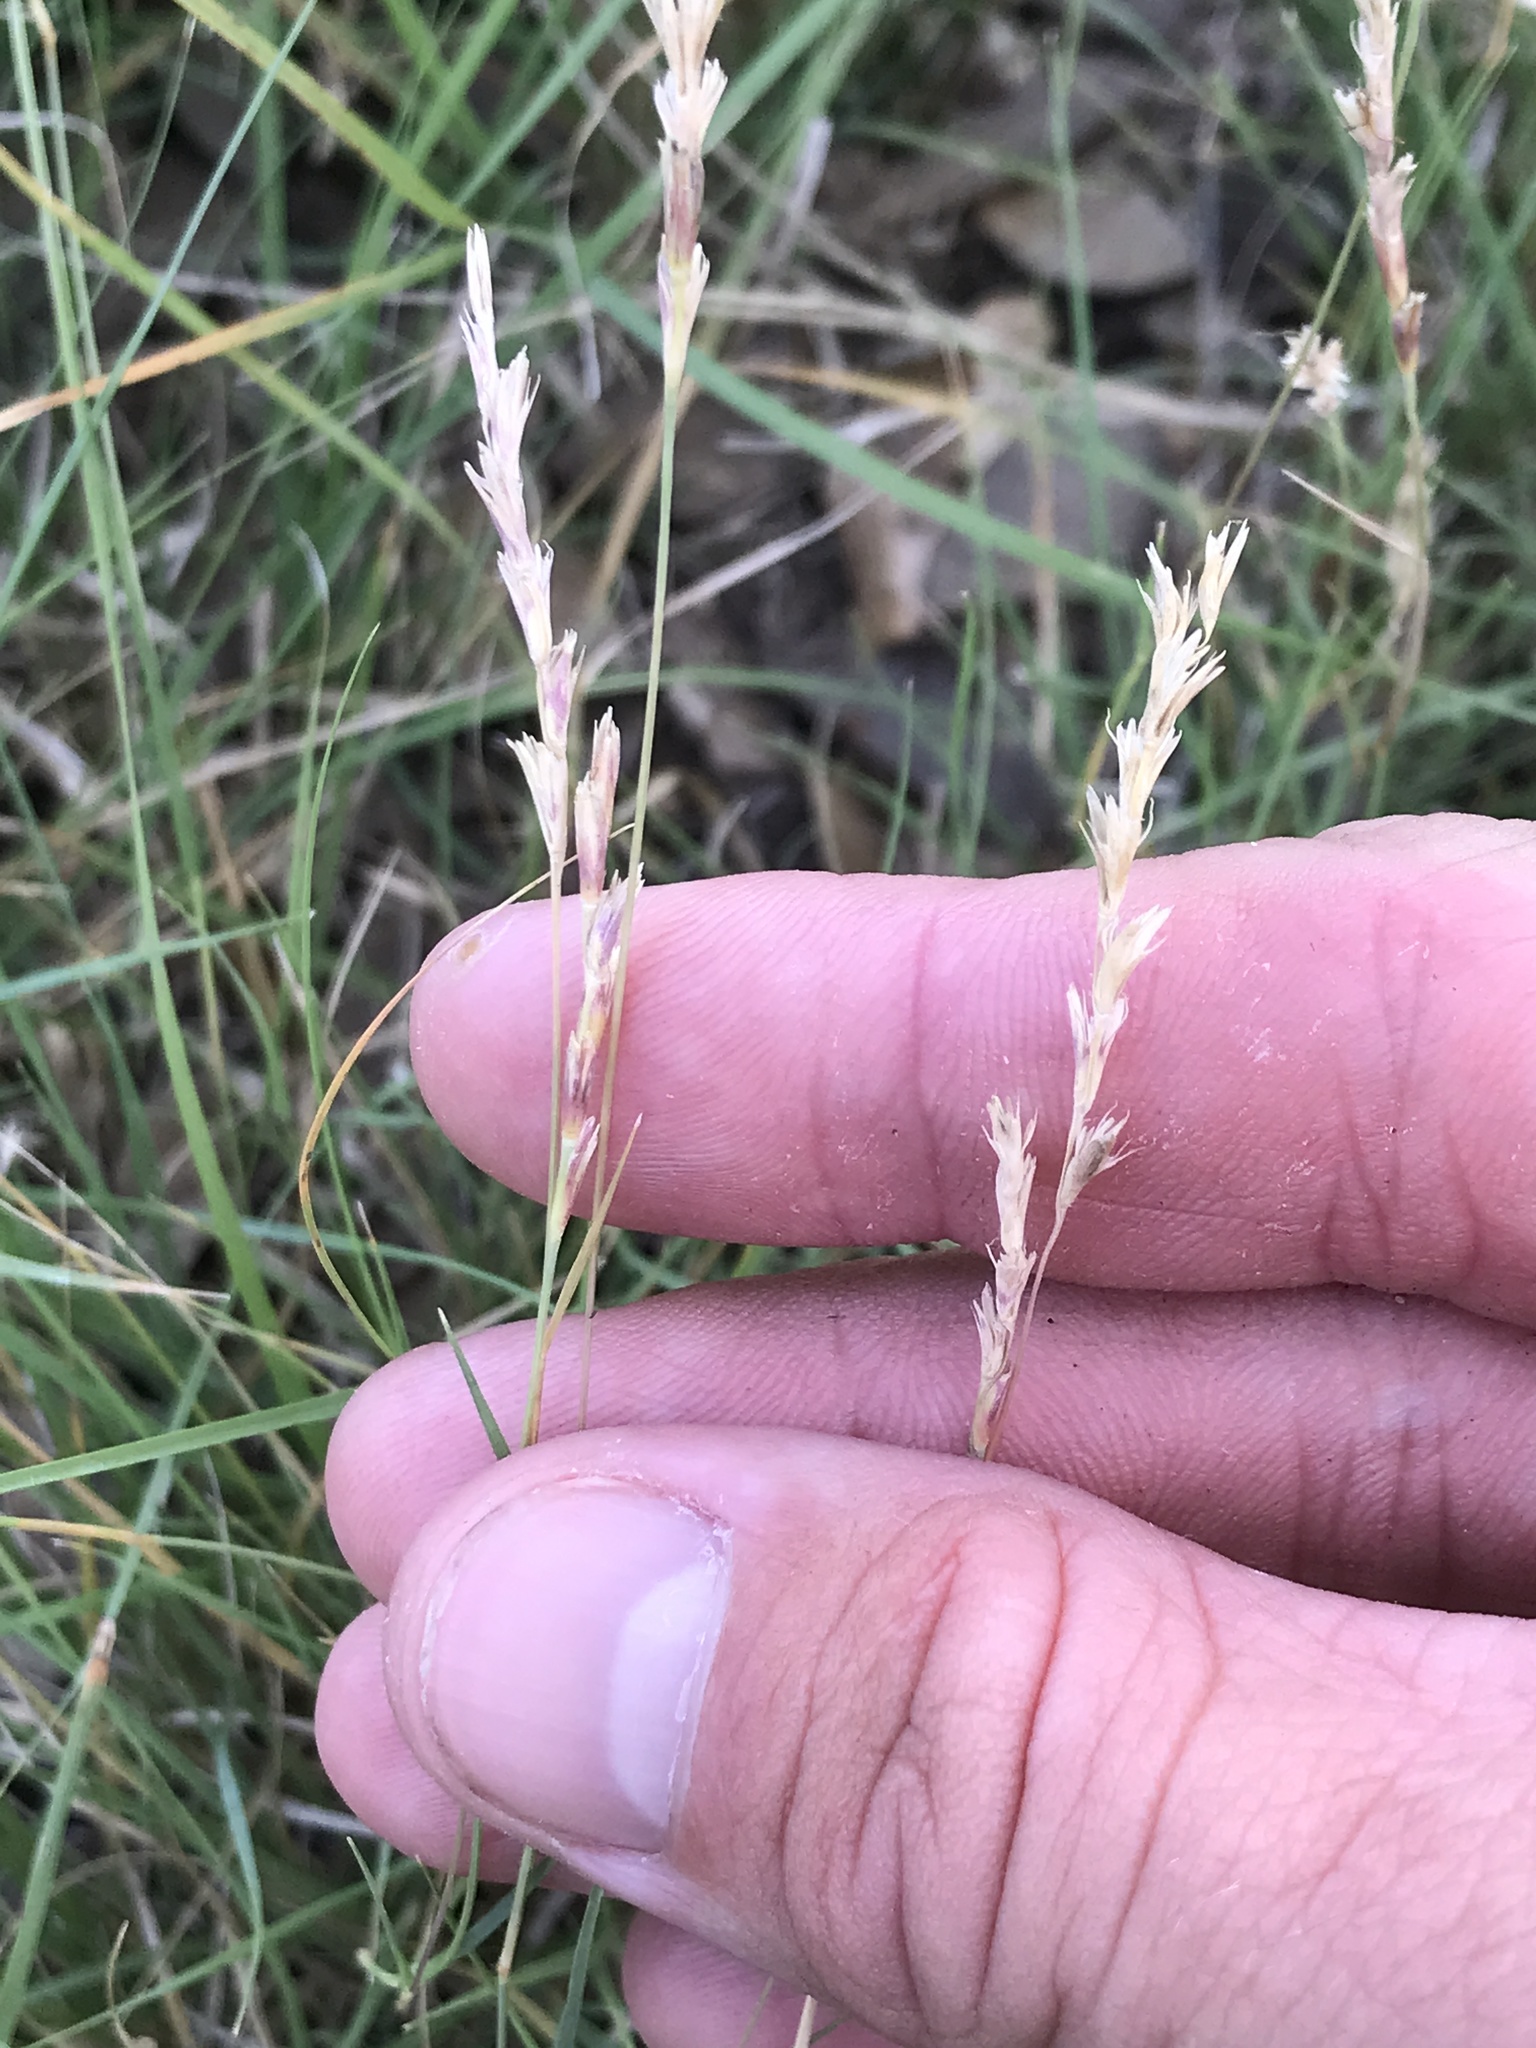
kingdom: Plantae
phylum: Tracheophyta
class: Liliopsida
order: Poales
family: Poaceae
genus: Hilaria
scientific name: Hilaria belangeri
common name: Curly-mesquite
